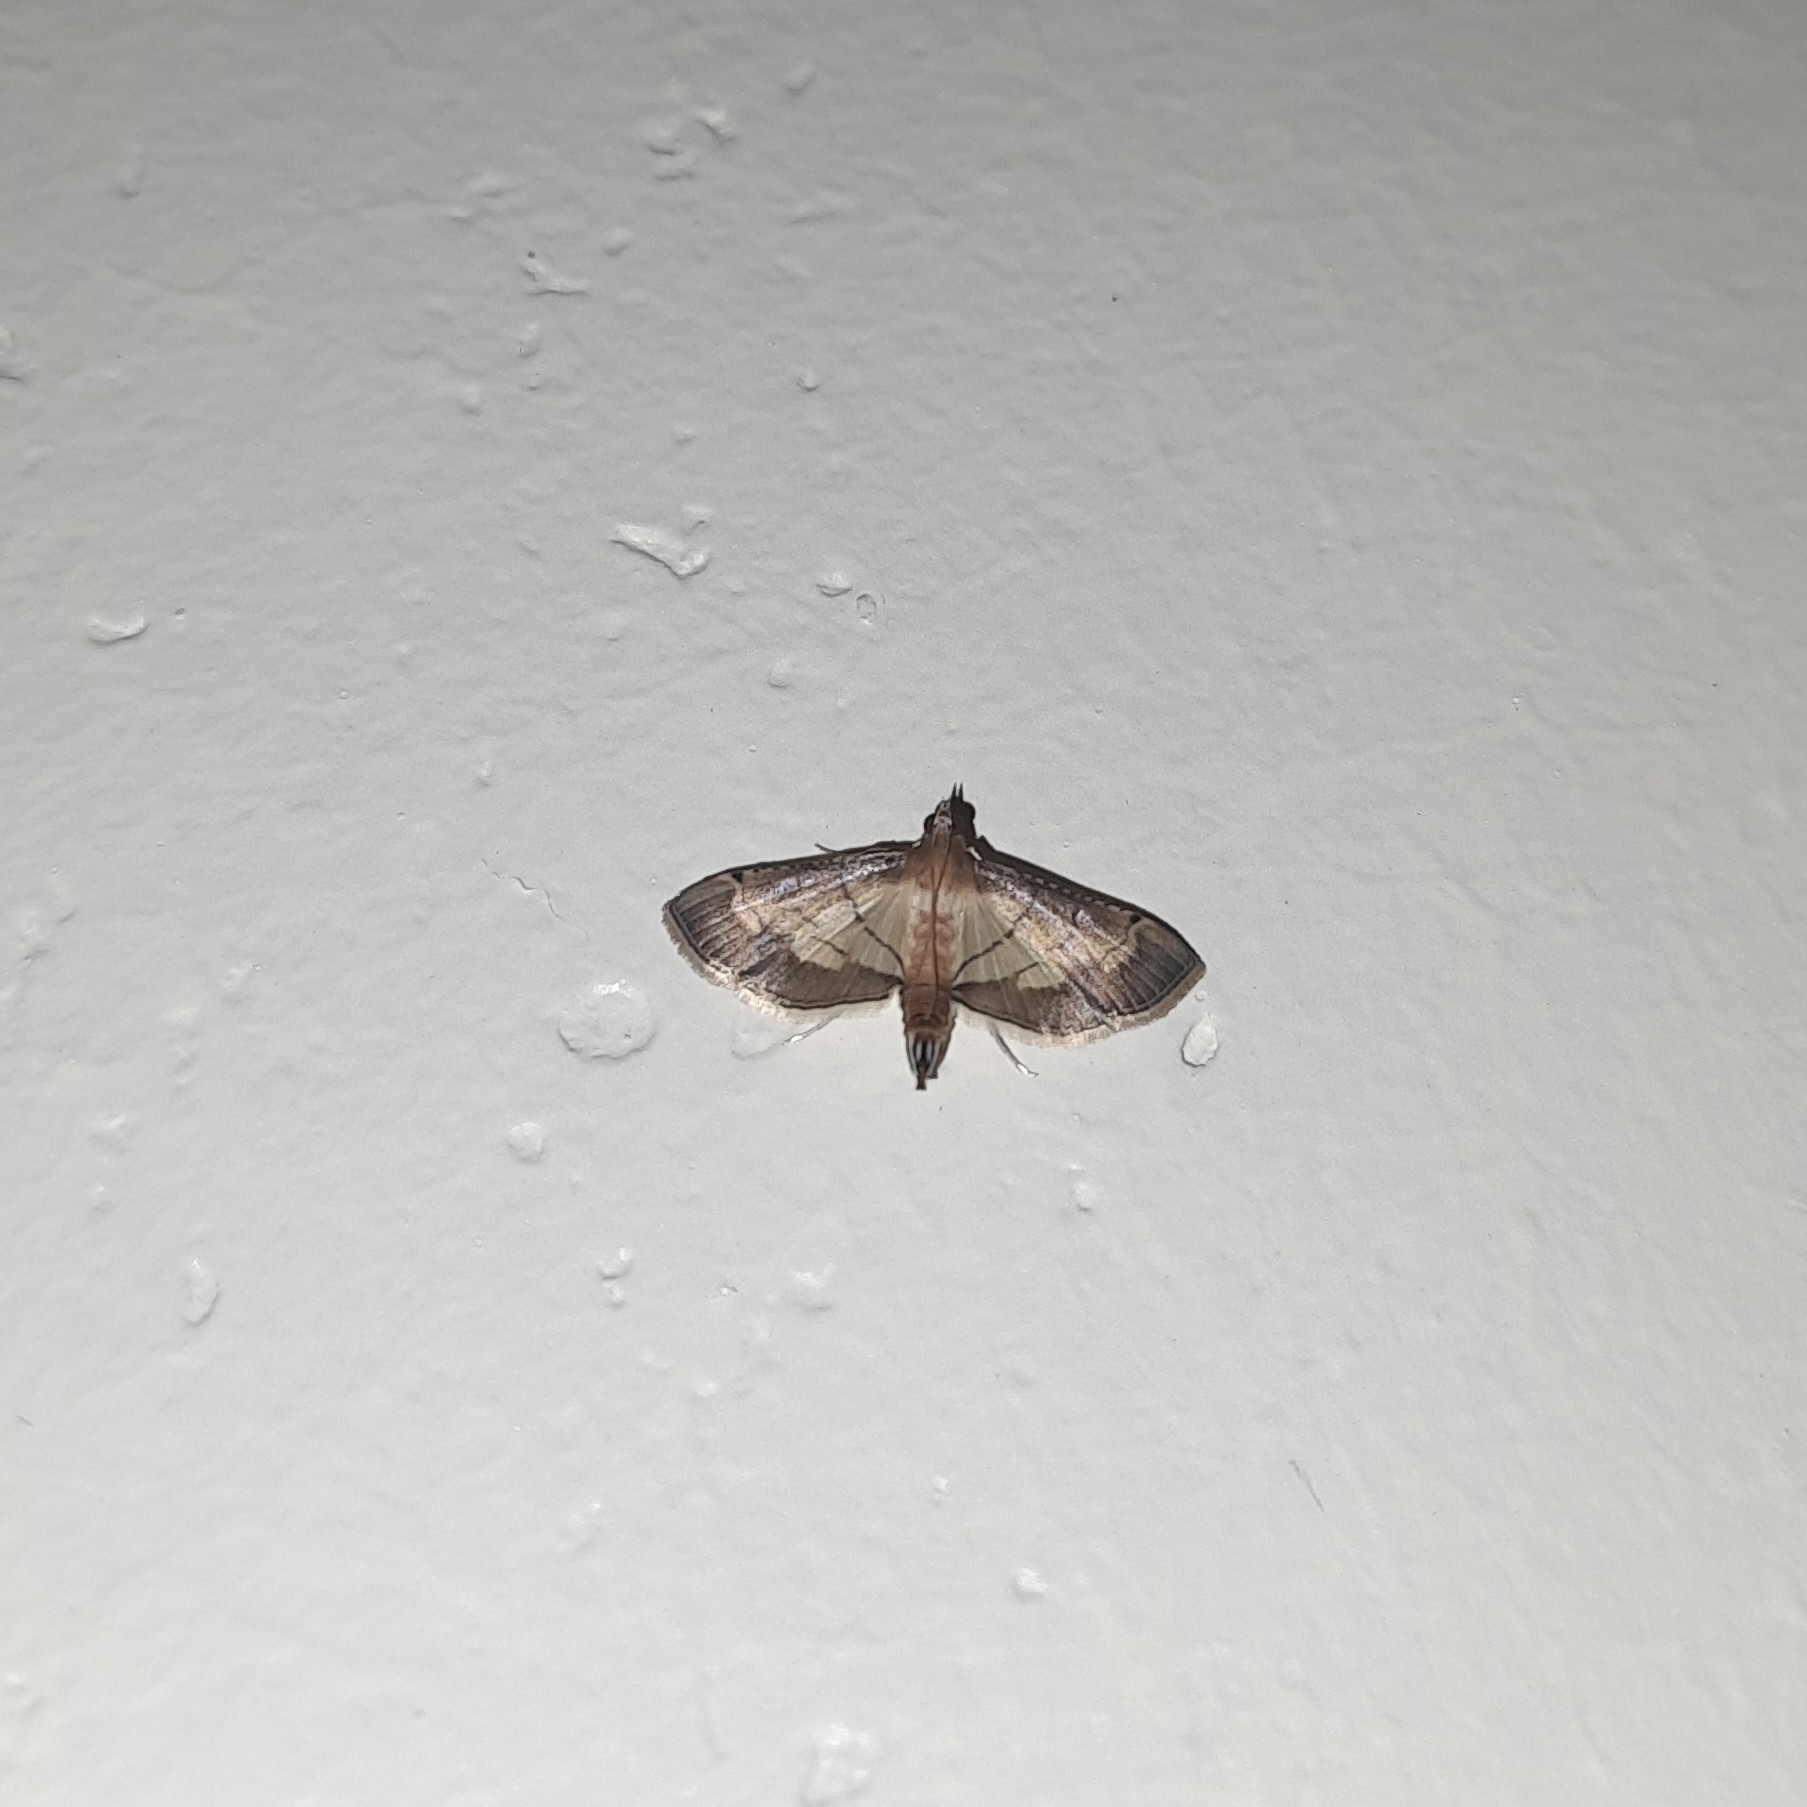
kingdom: Animalia
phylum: Arthropoda
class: Insecta
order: Lepidoptera
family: Crambidae
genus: Cnaphalocrocis
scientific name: Cnaphalocrocis poeyalis
